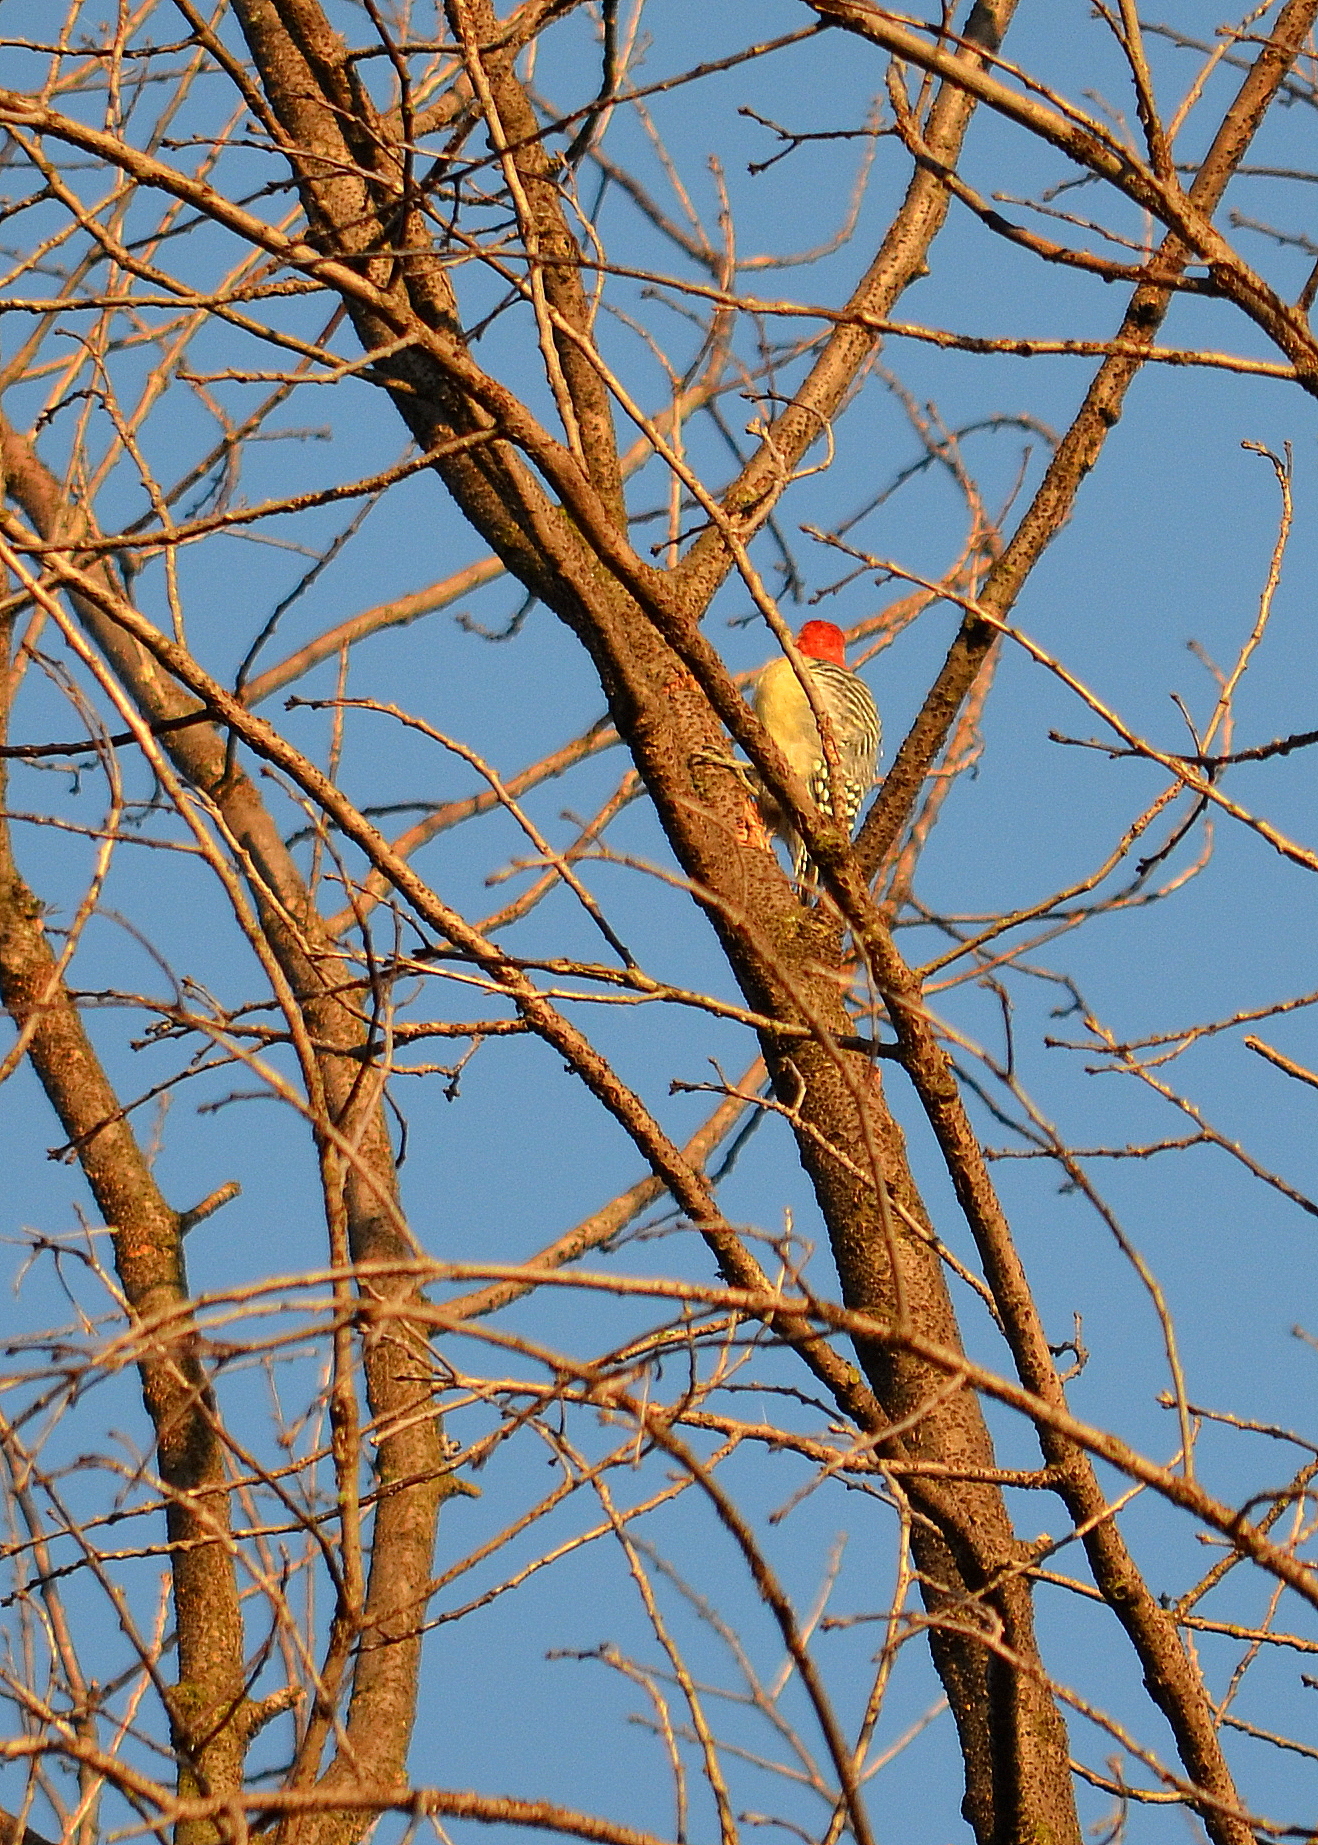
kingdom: Animalia
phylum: Chordata
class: Aves
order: Piciformes
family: Picidae
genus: Melanerpes
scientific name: Melanerpes carolinus
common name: Red-bellied woodpecker
